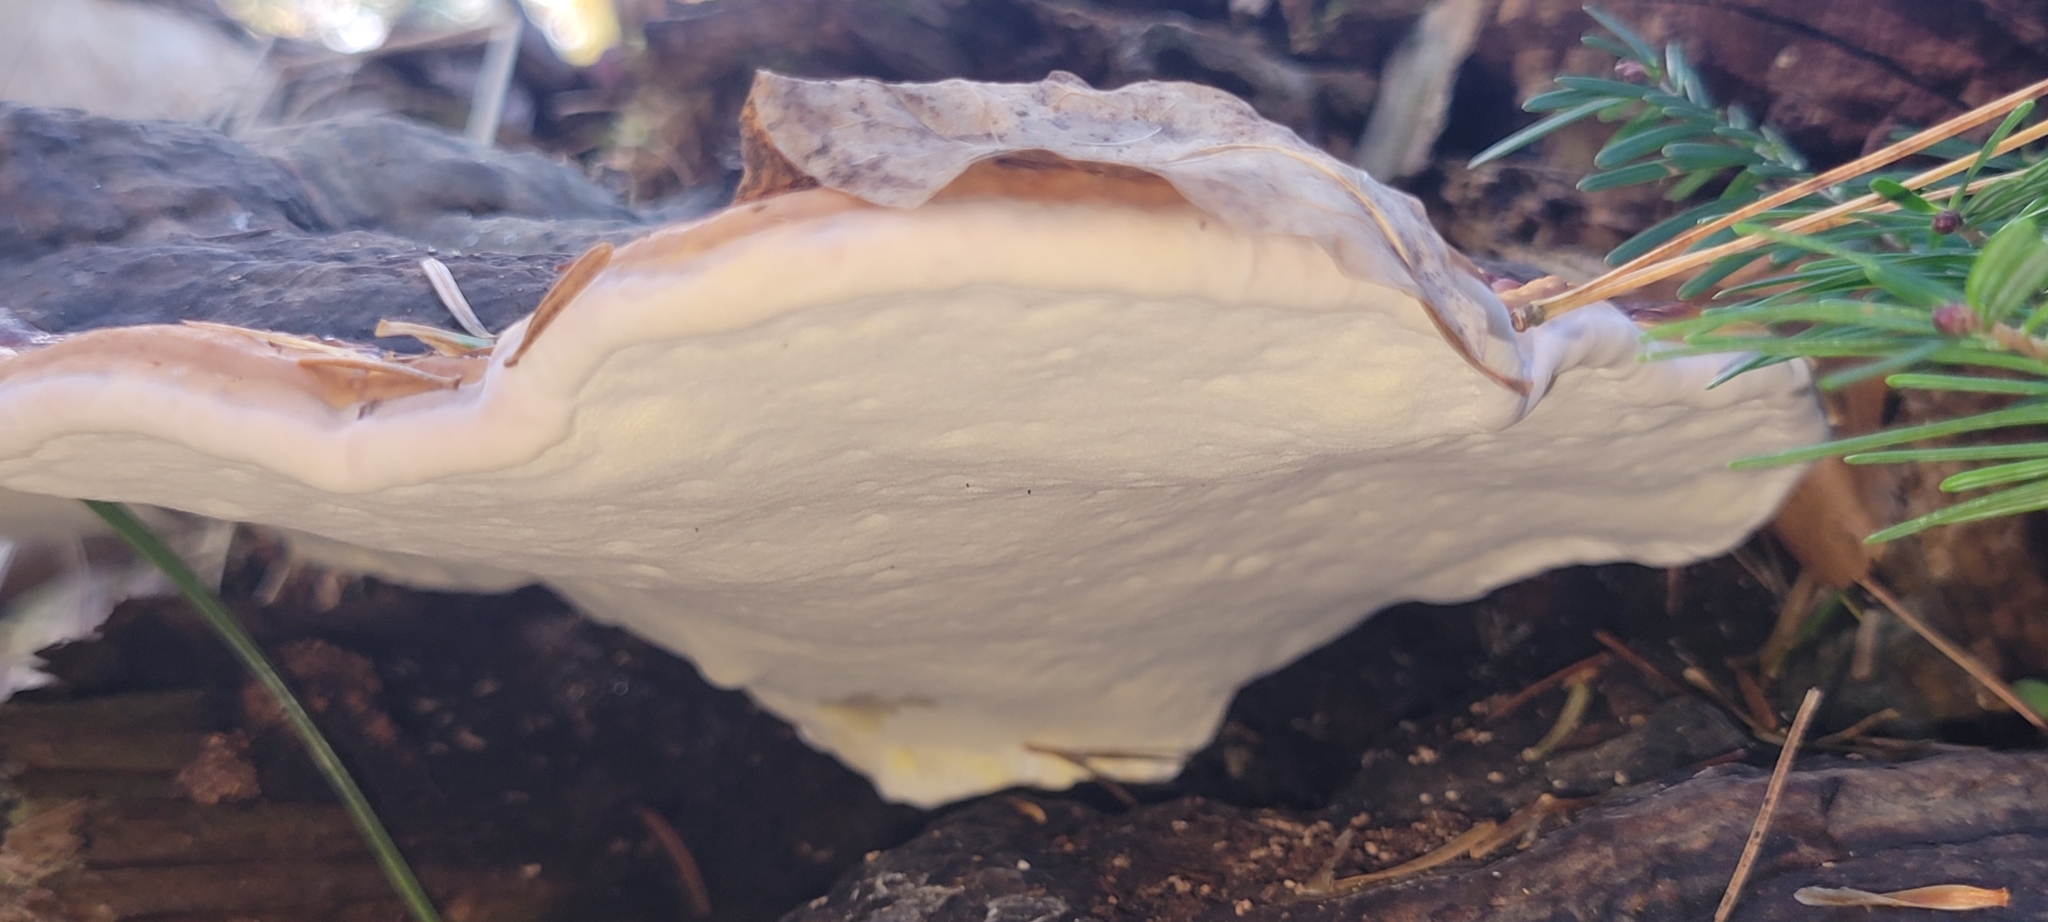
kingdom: Fungi
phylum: Basidiomycota
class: Agaricomycetes
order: Polyporales
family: Fomitopsidaceae
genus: Fomitopsis
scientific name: Fomitopsis mounceae
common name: Northern red belt
